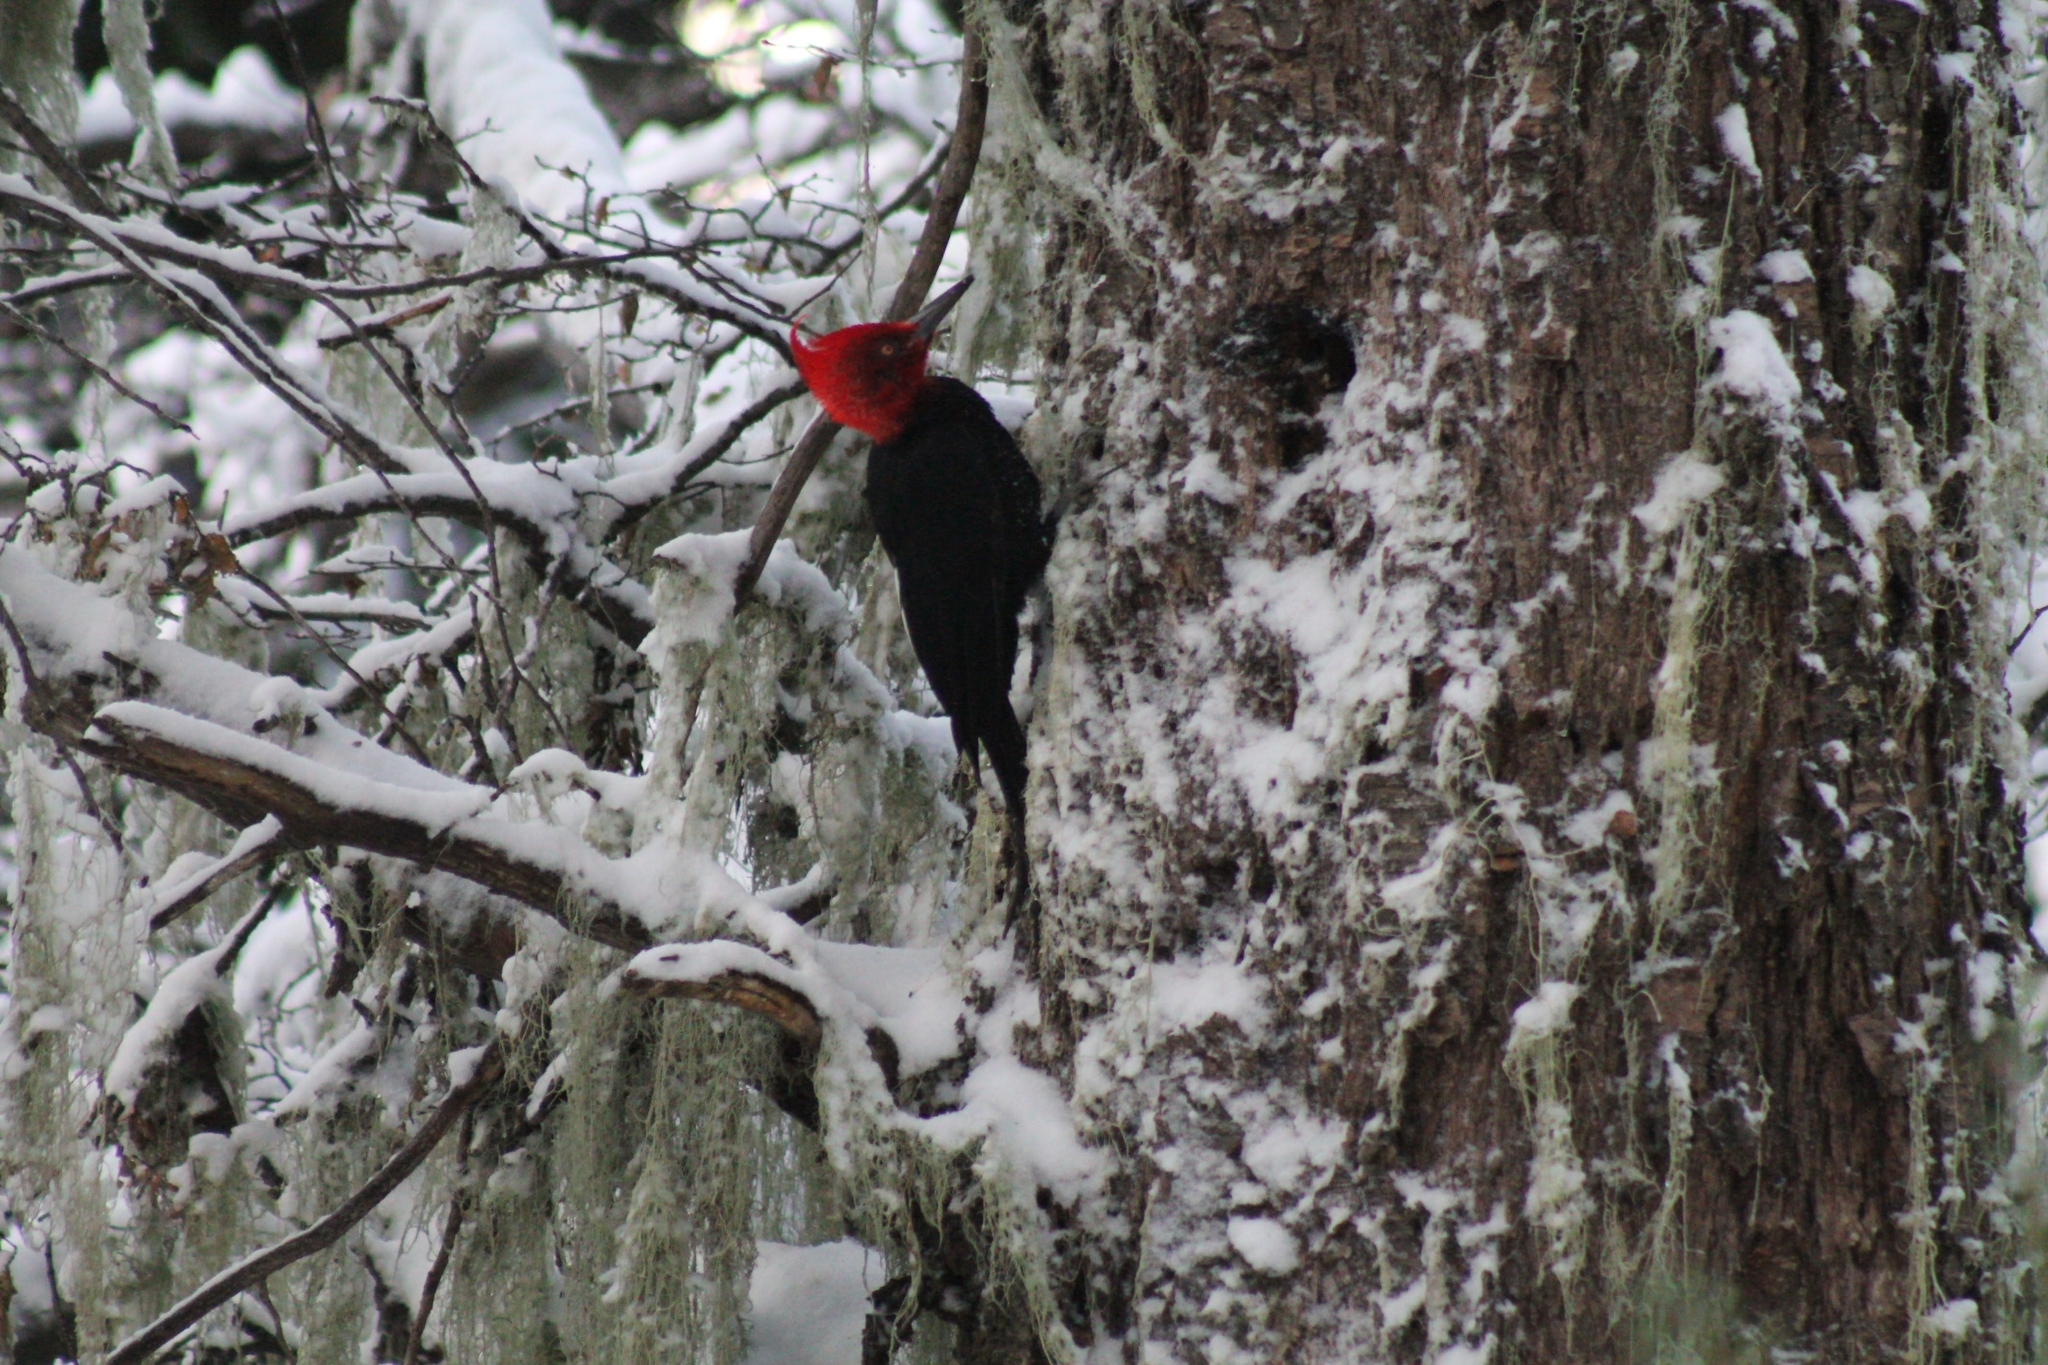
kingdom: Animalia
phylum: Chordata
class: Aves
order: Piciformes
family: Picidae
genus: Campephilus
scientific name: Campephilus magellanicus
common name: Magellanic woodpecker
